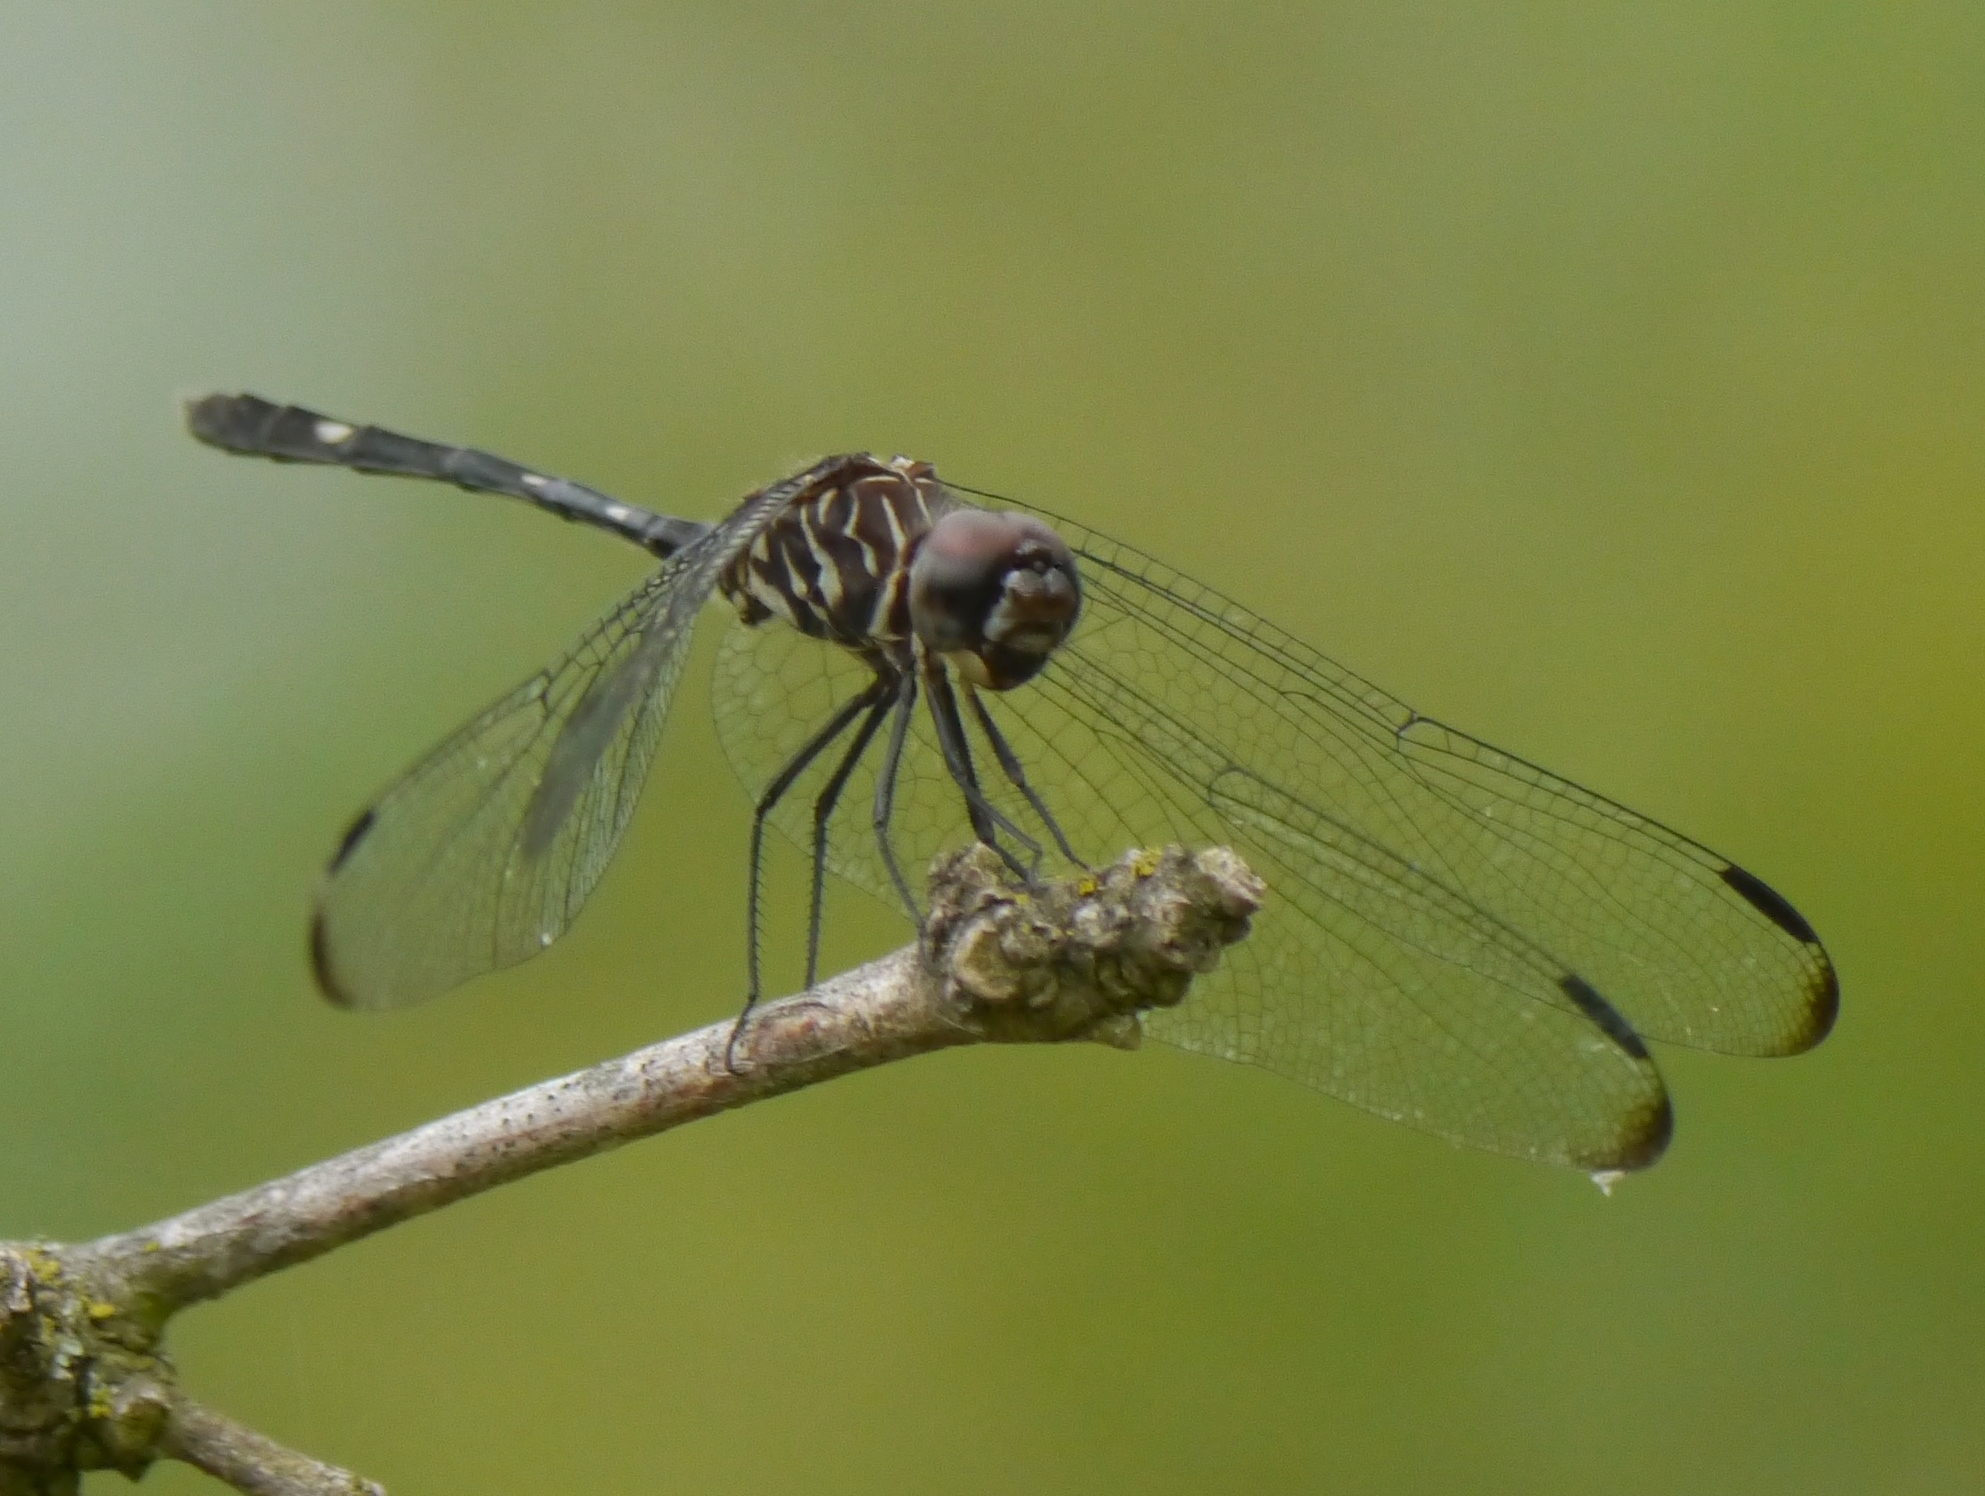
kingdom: Animalia
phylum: Arthropoda
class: Insecta
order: Odonata
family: Libellulidae
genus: Dythemis
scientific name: Dythemis velox
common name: Swift setwing
